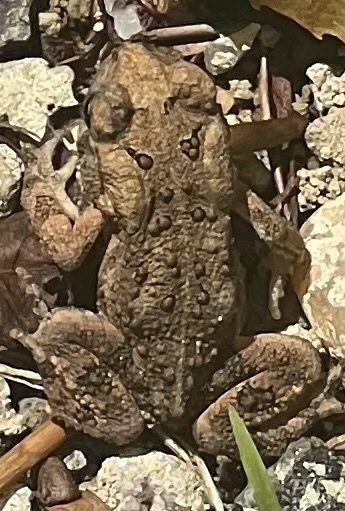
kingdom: Animalia
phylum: Chordata
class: Amphibia
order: Anura
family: Bufonidae
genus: Anaxyrus
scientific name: Anaxyrus americanus
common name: American toad
